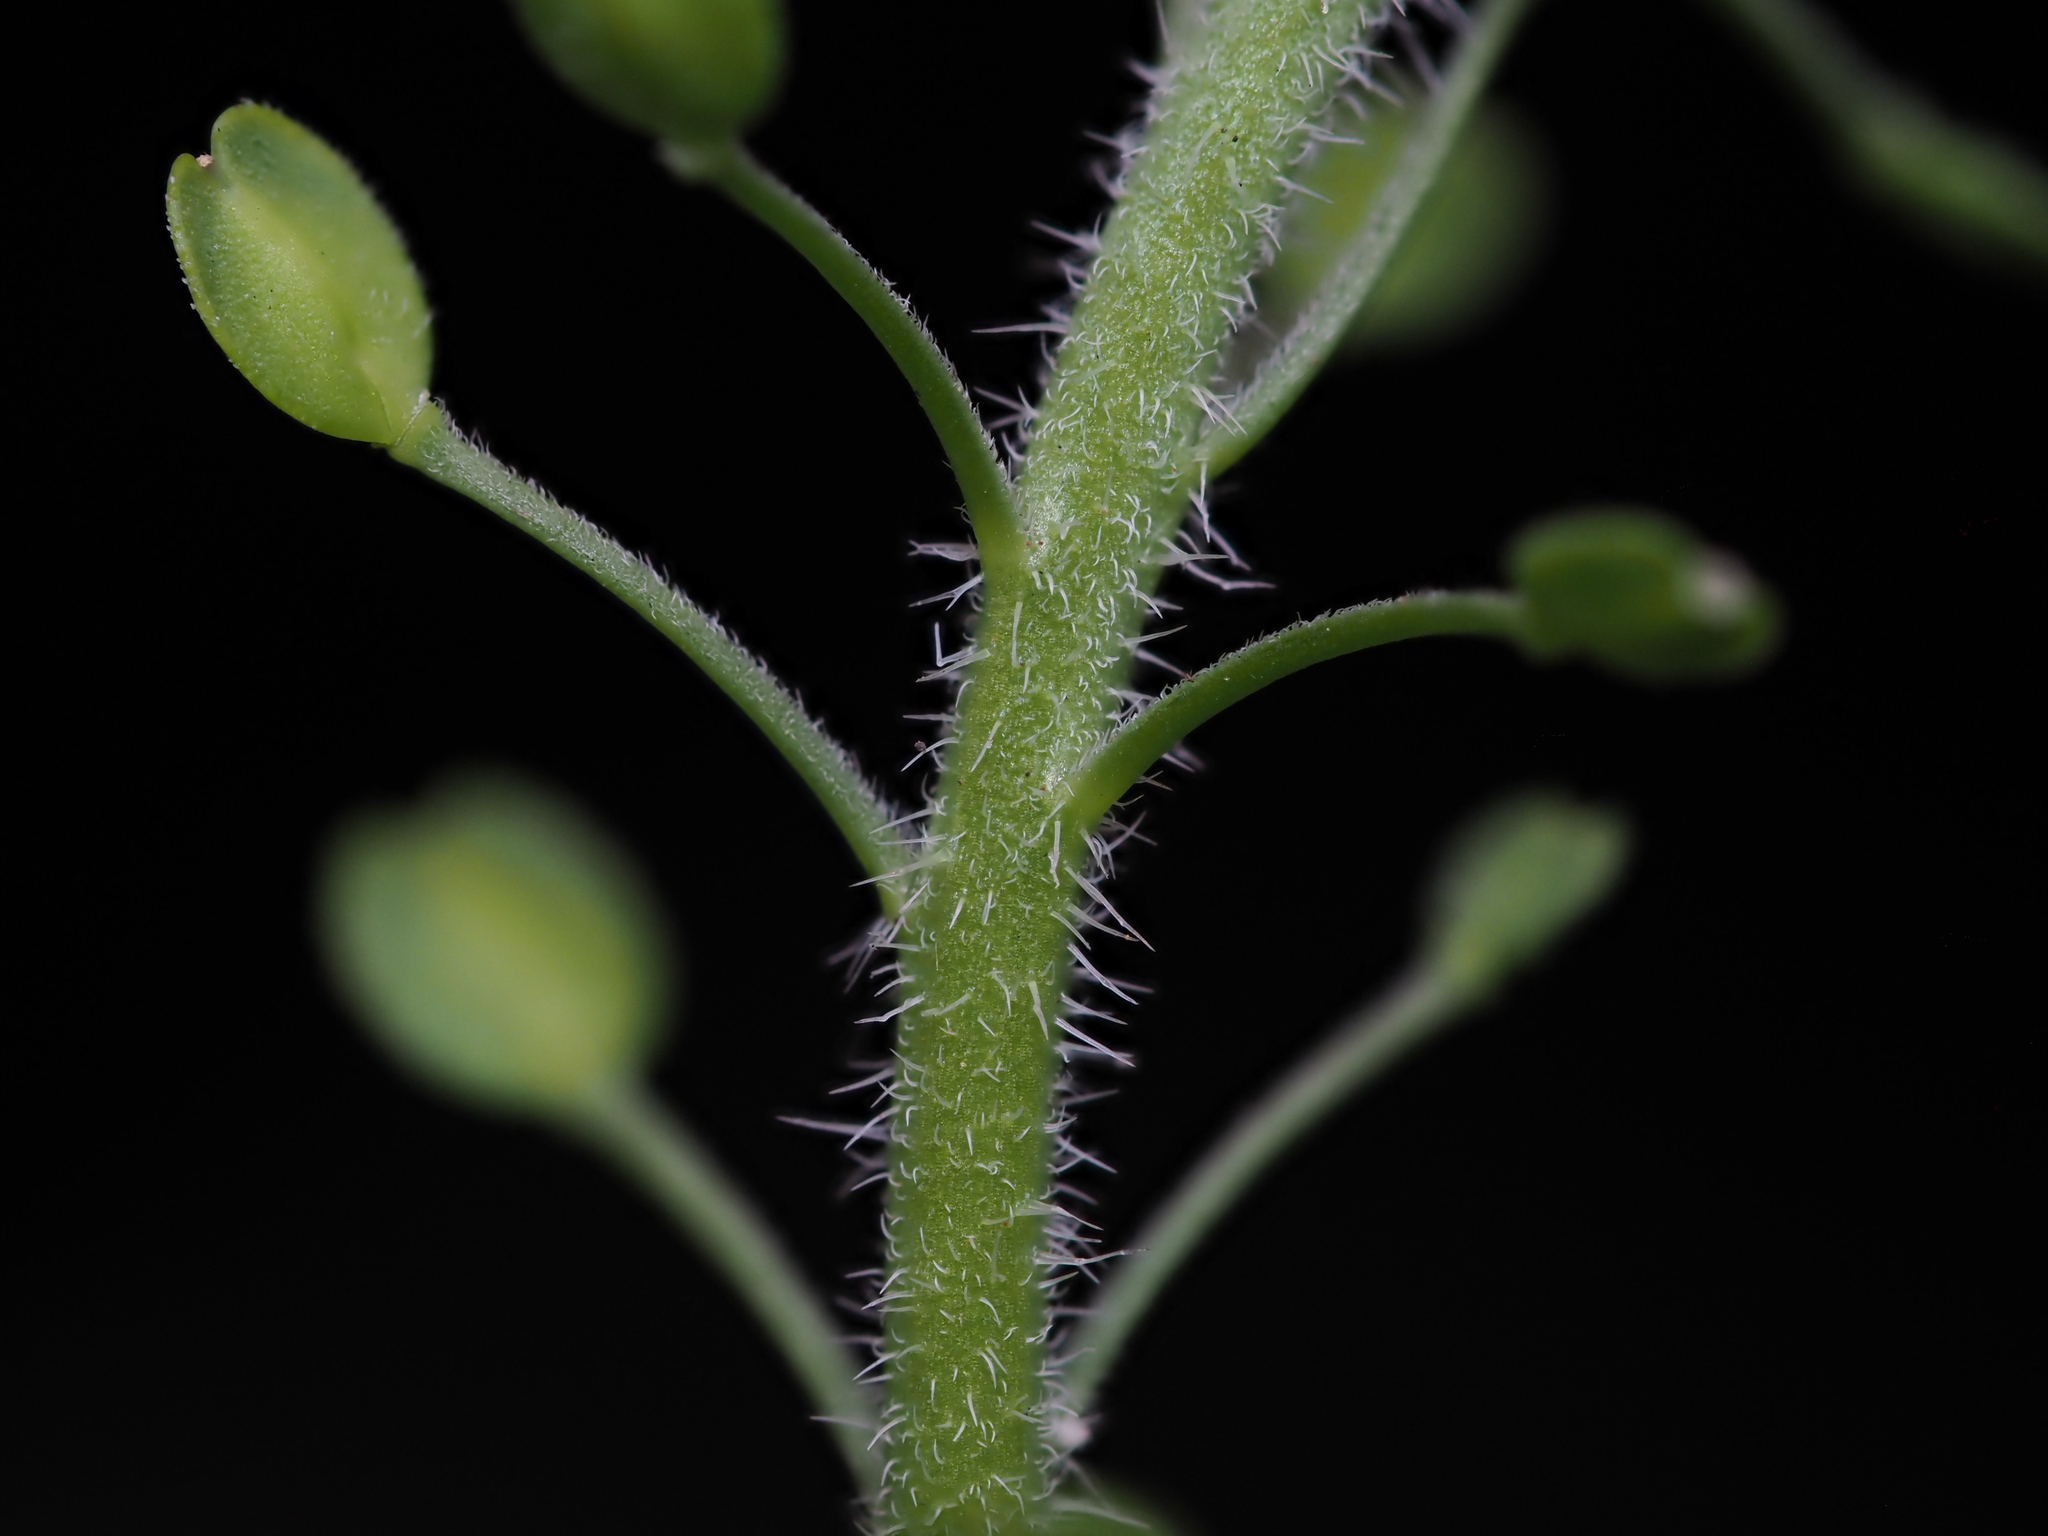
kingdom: Plantae
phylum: Tracheophyta
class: Magnoliopsida
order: Brassicales
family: Brassicaceae
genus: Lepidium
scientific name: Lepidium lasiocarpum
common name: Hairy-pod pepperwort
